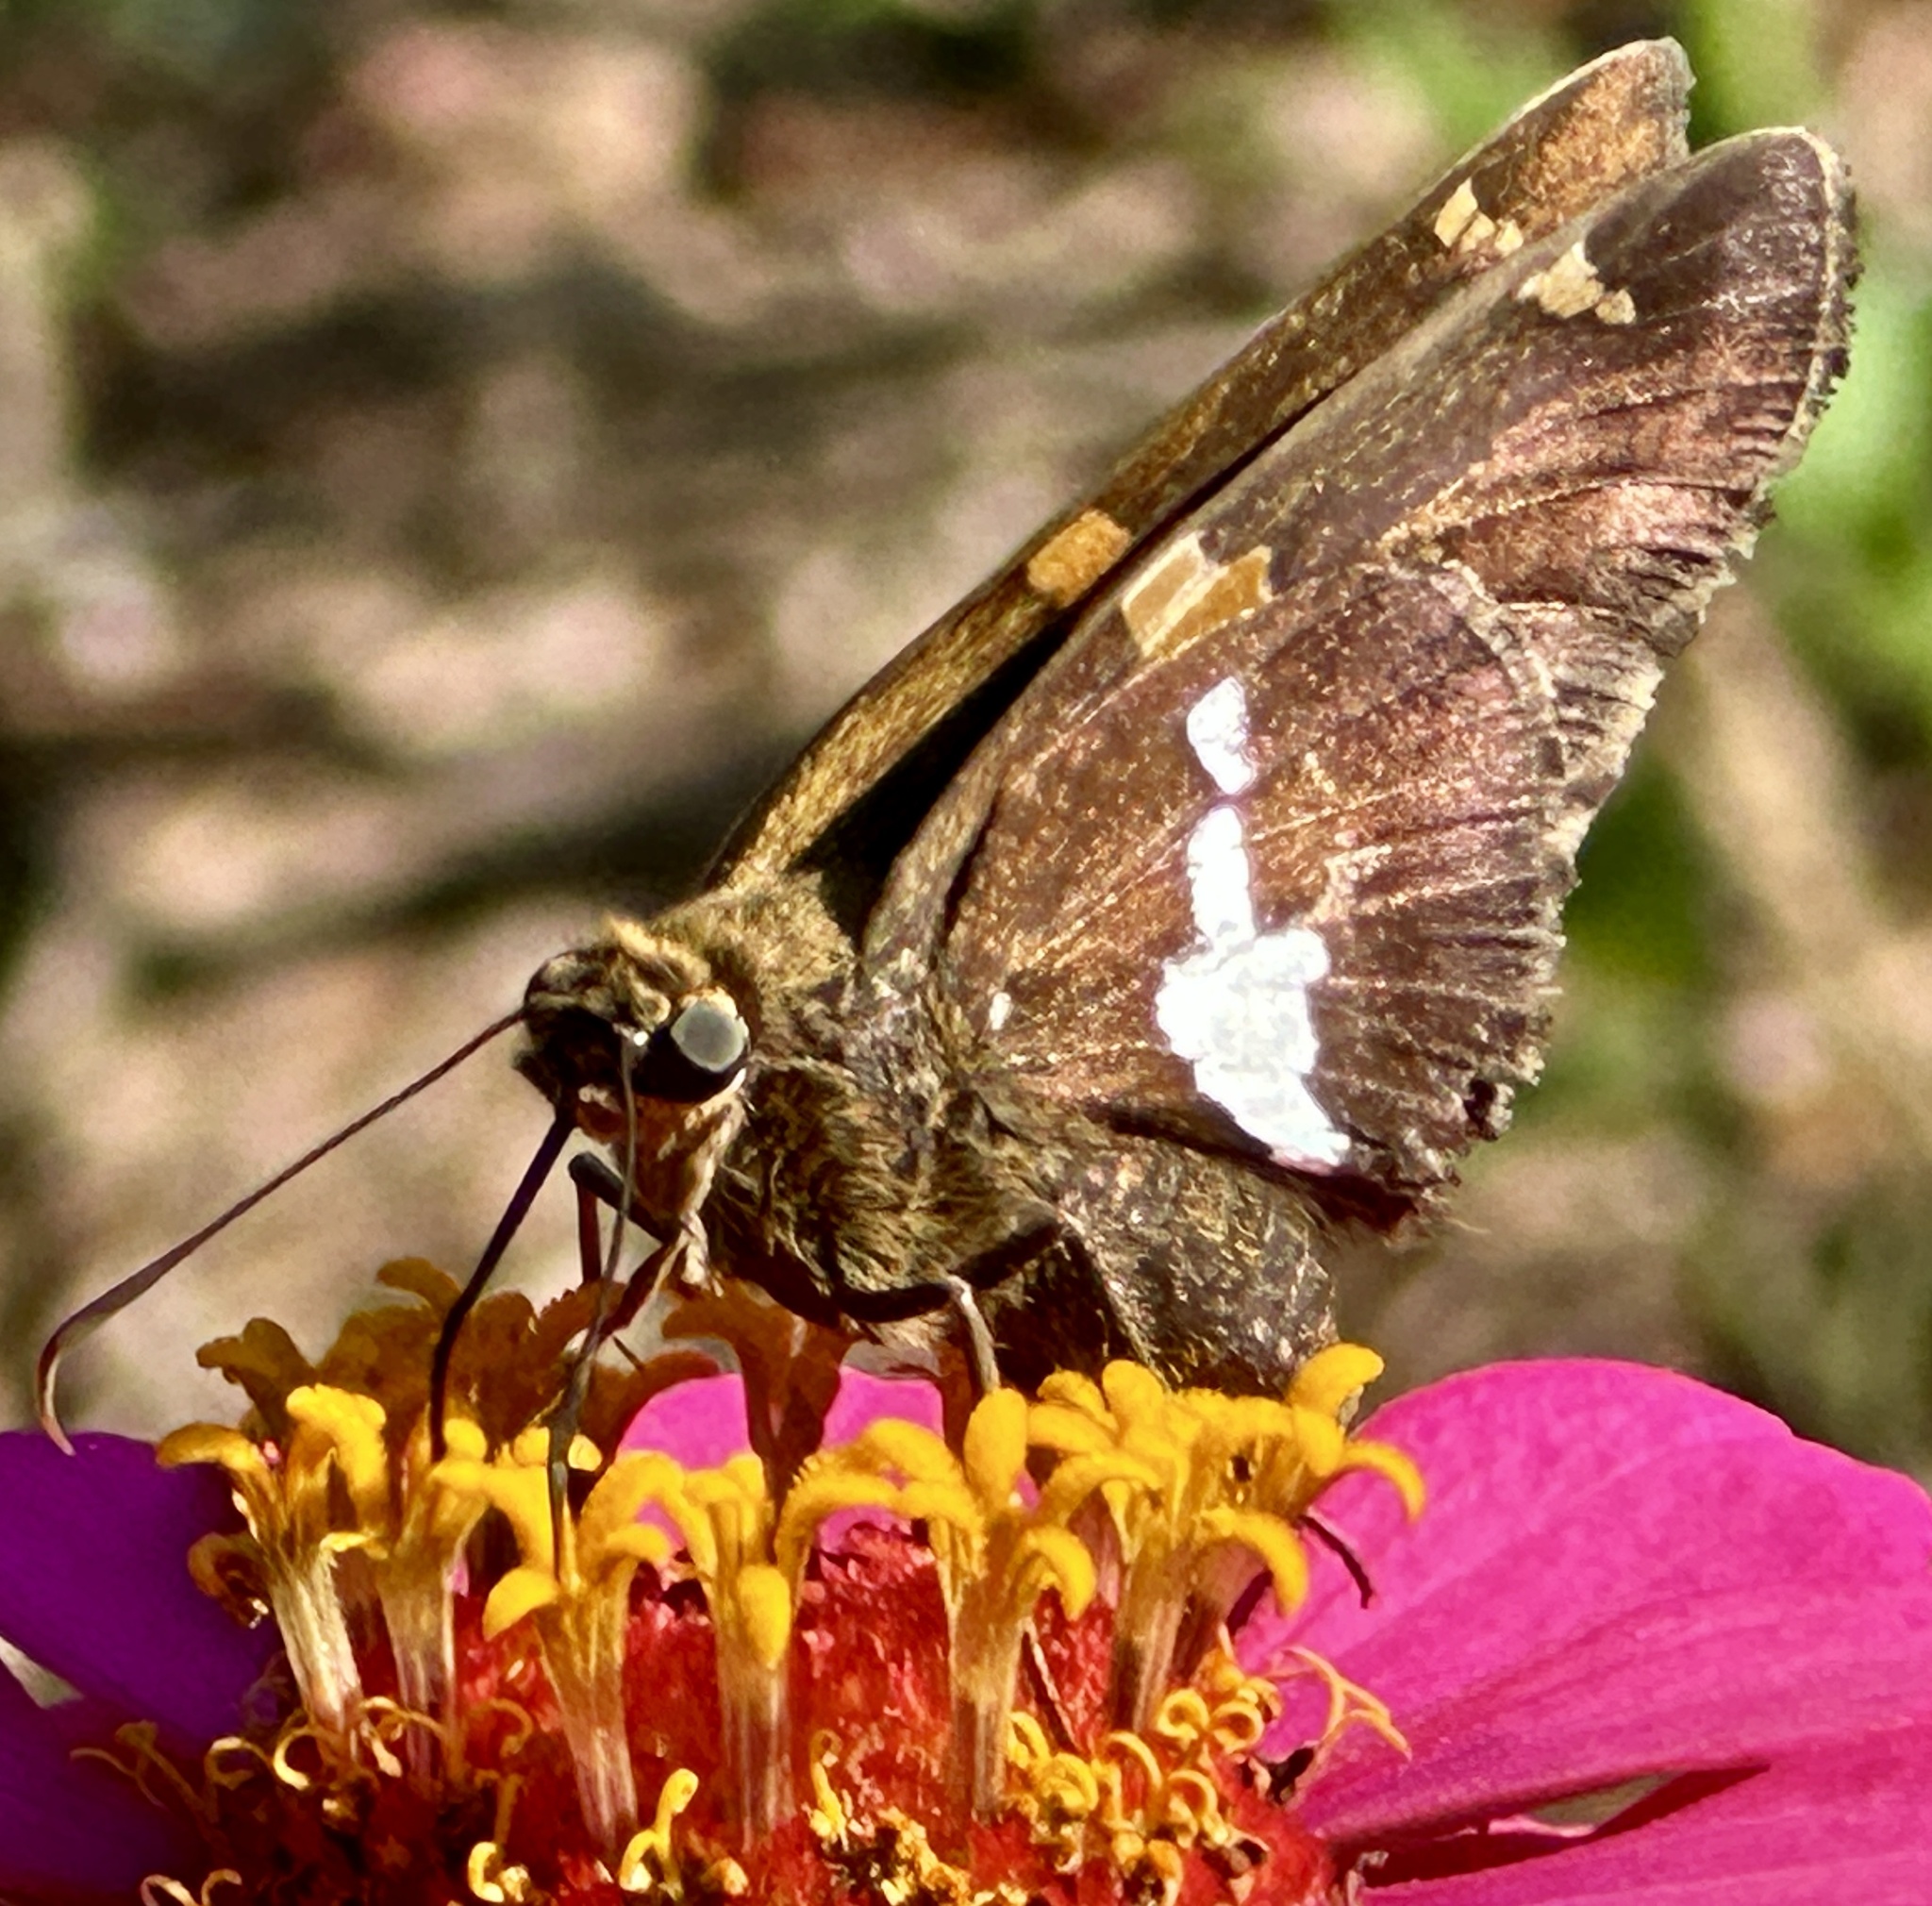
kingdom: Animalia
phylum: Arthropoda
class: Insecta
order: Lepidoptera
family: Hesperiidae
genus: Epargyreus
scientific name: Epargyreus clarus
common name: Silver-spotted skipper
